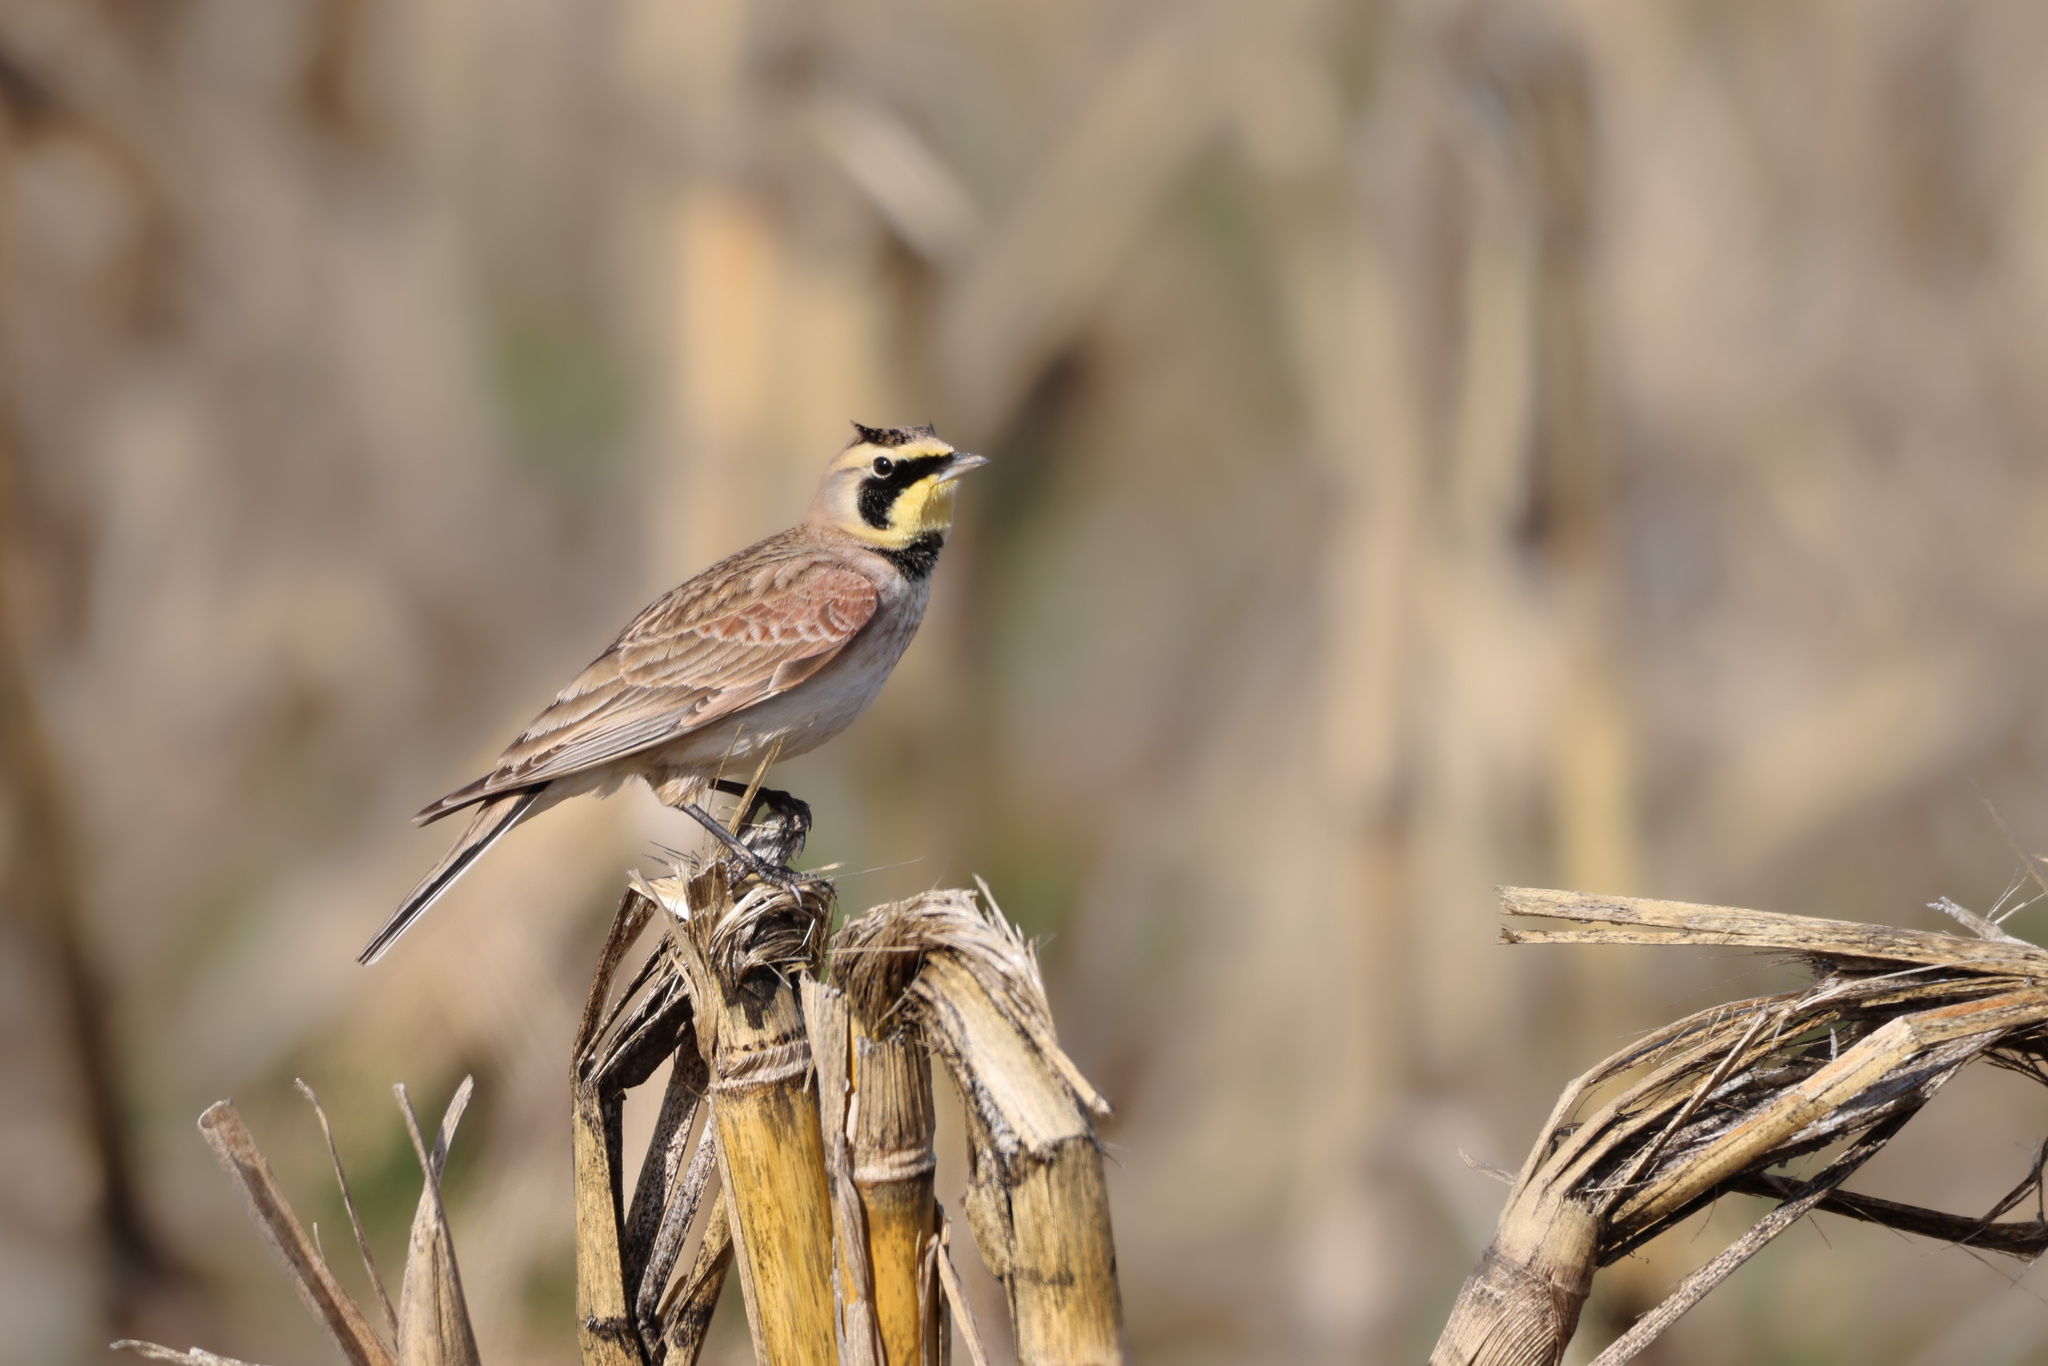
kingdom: Animalia
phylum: Chordata
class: Aves
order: Passeriformes
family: Alaudidae
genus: Eremophila
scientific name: Eremophila alpestris
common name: Horned lark
